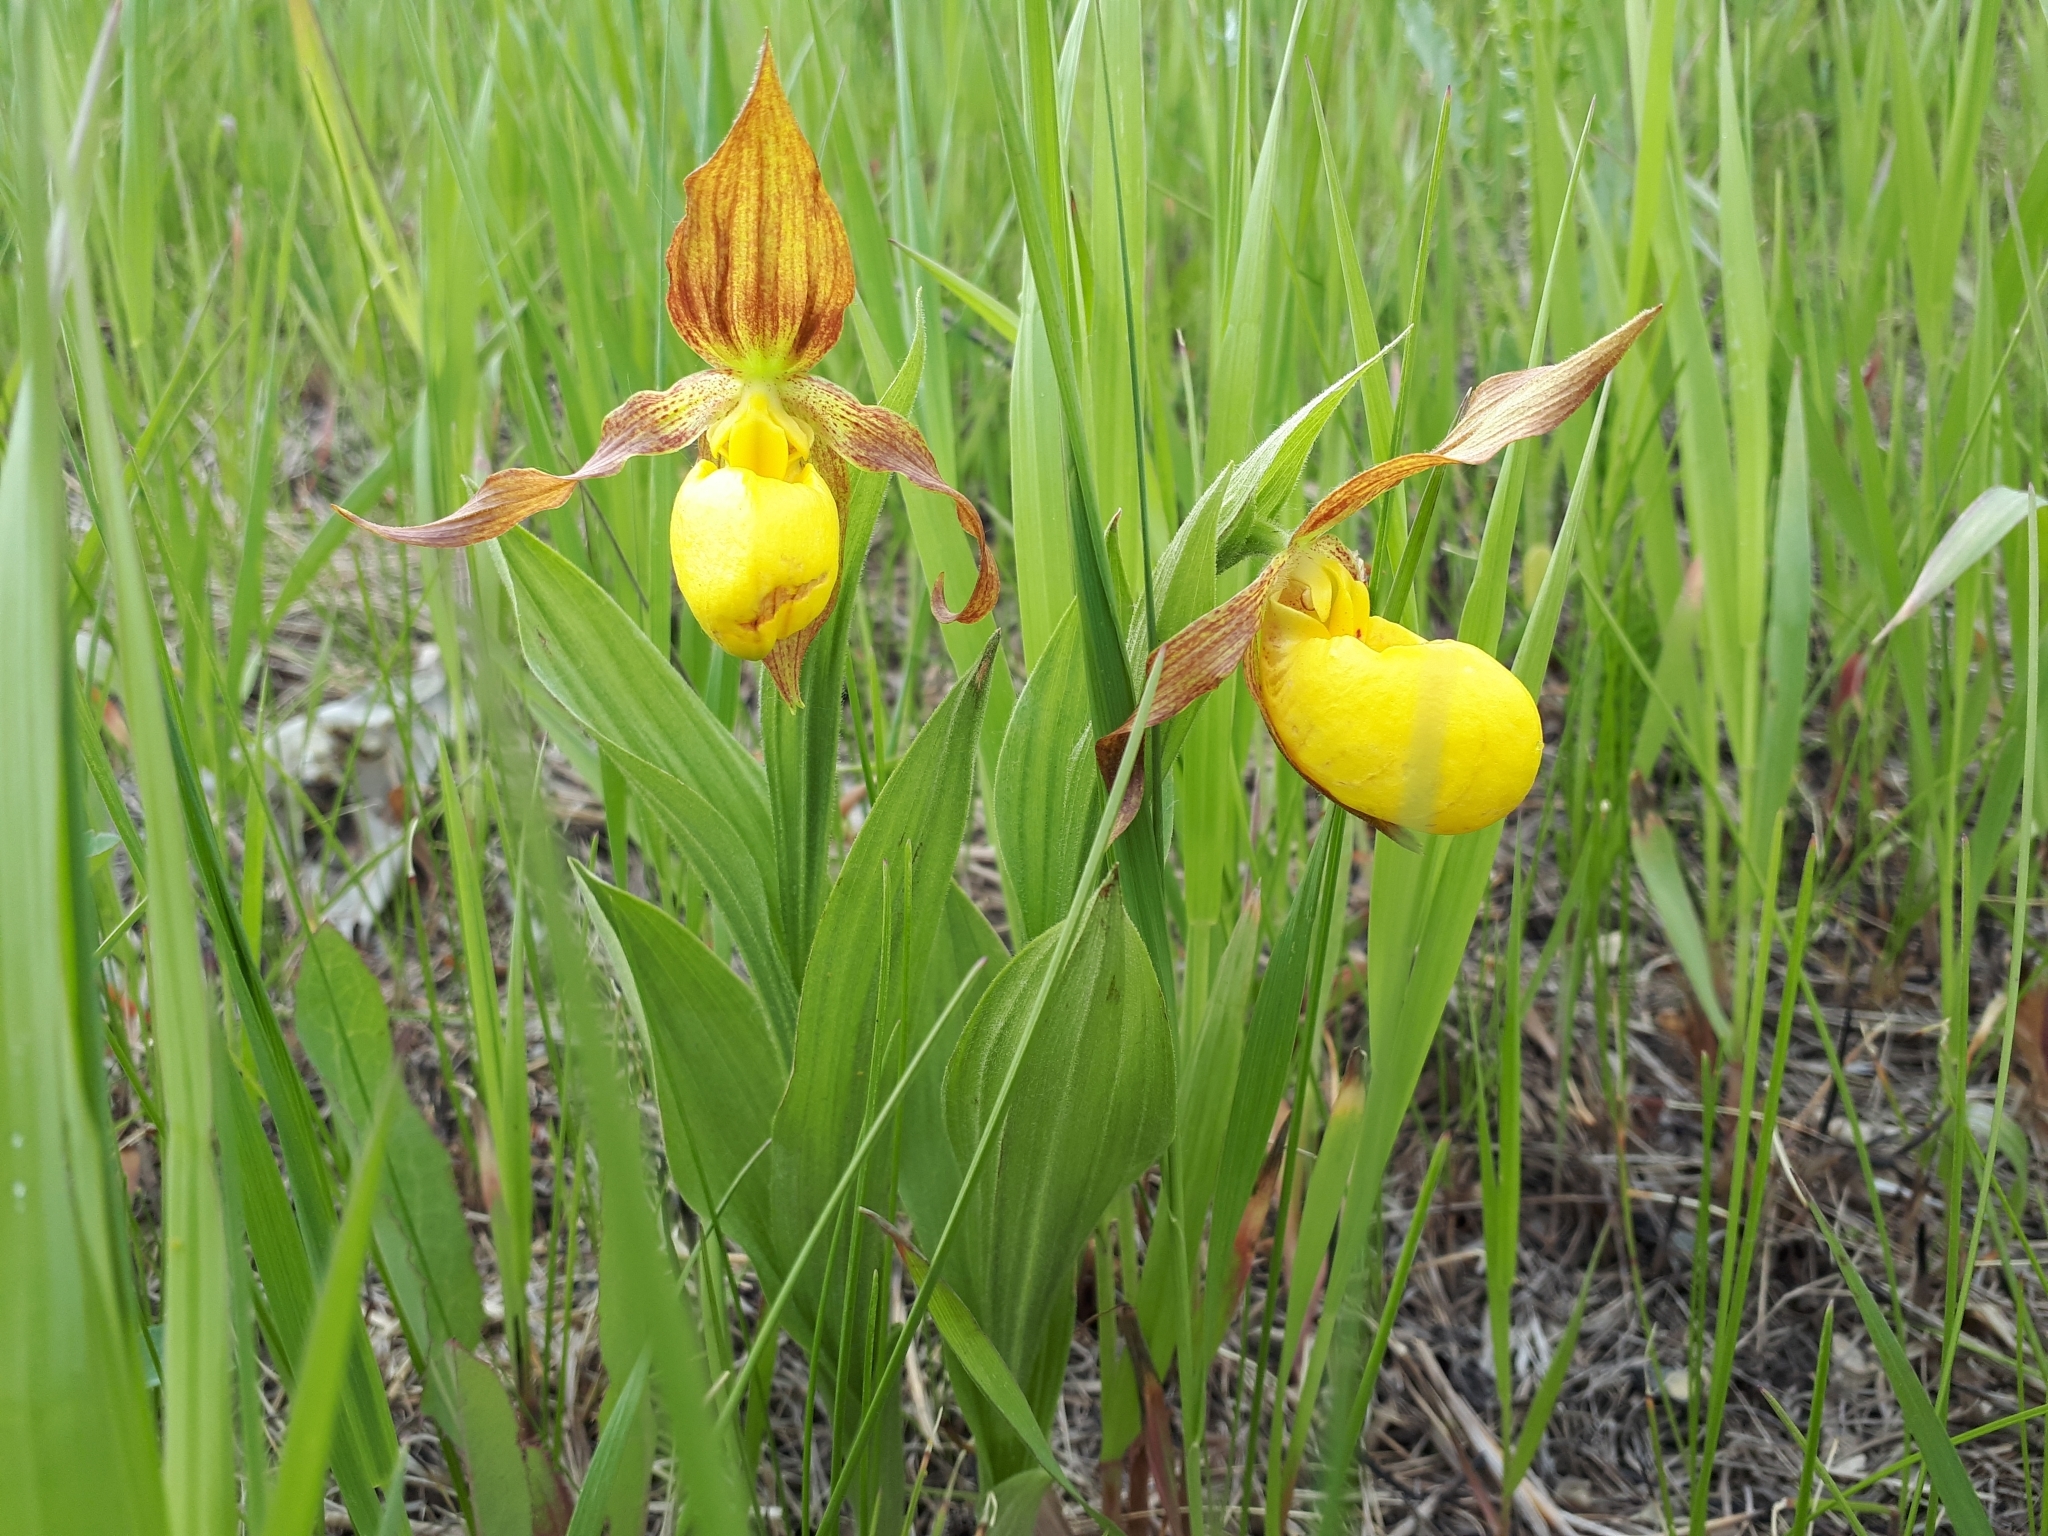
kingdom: Plantae
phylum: Tracheophyta
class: Liliopsida
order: Asparagales
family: Orchidaceae
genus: Cypripedium
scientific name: Cypripedium parviflorum
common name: American yellow lady's-slipper
